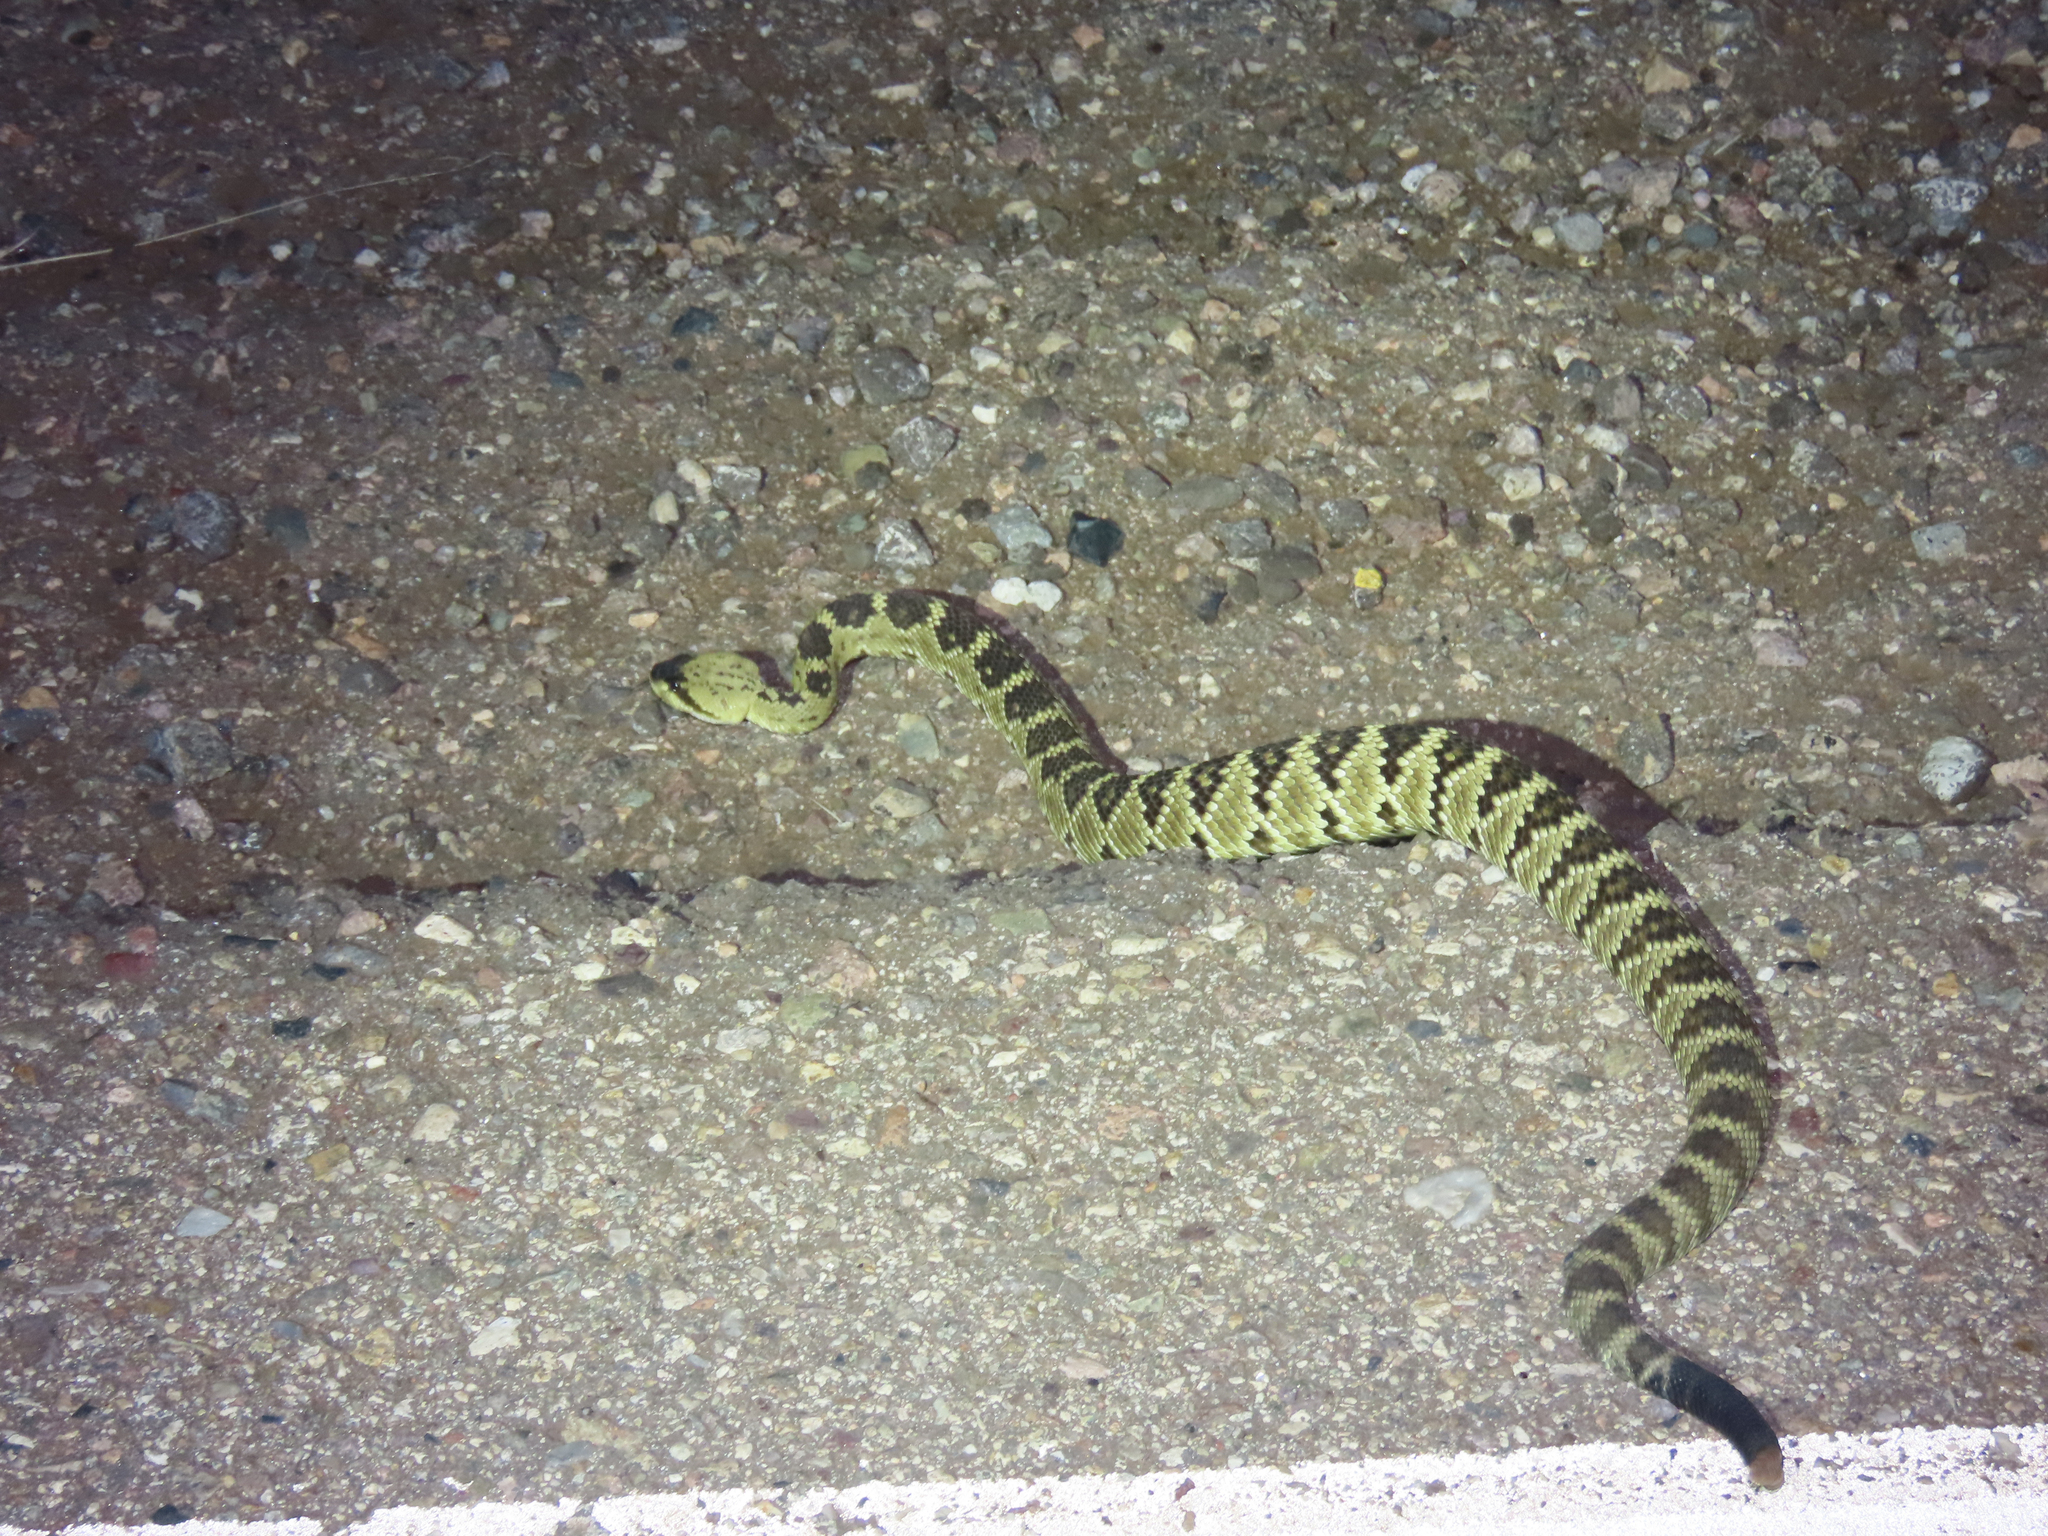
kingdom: Animalia
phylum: Chordata
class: Squamata
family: Viperidae
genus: Crotalus
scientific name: Crotalus molossus
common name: Black tailed rattlesnake
